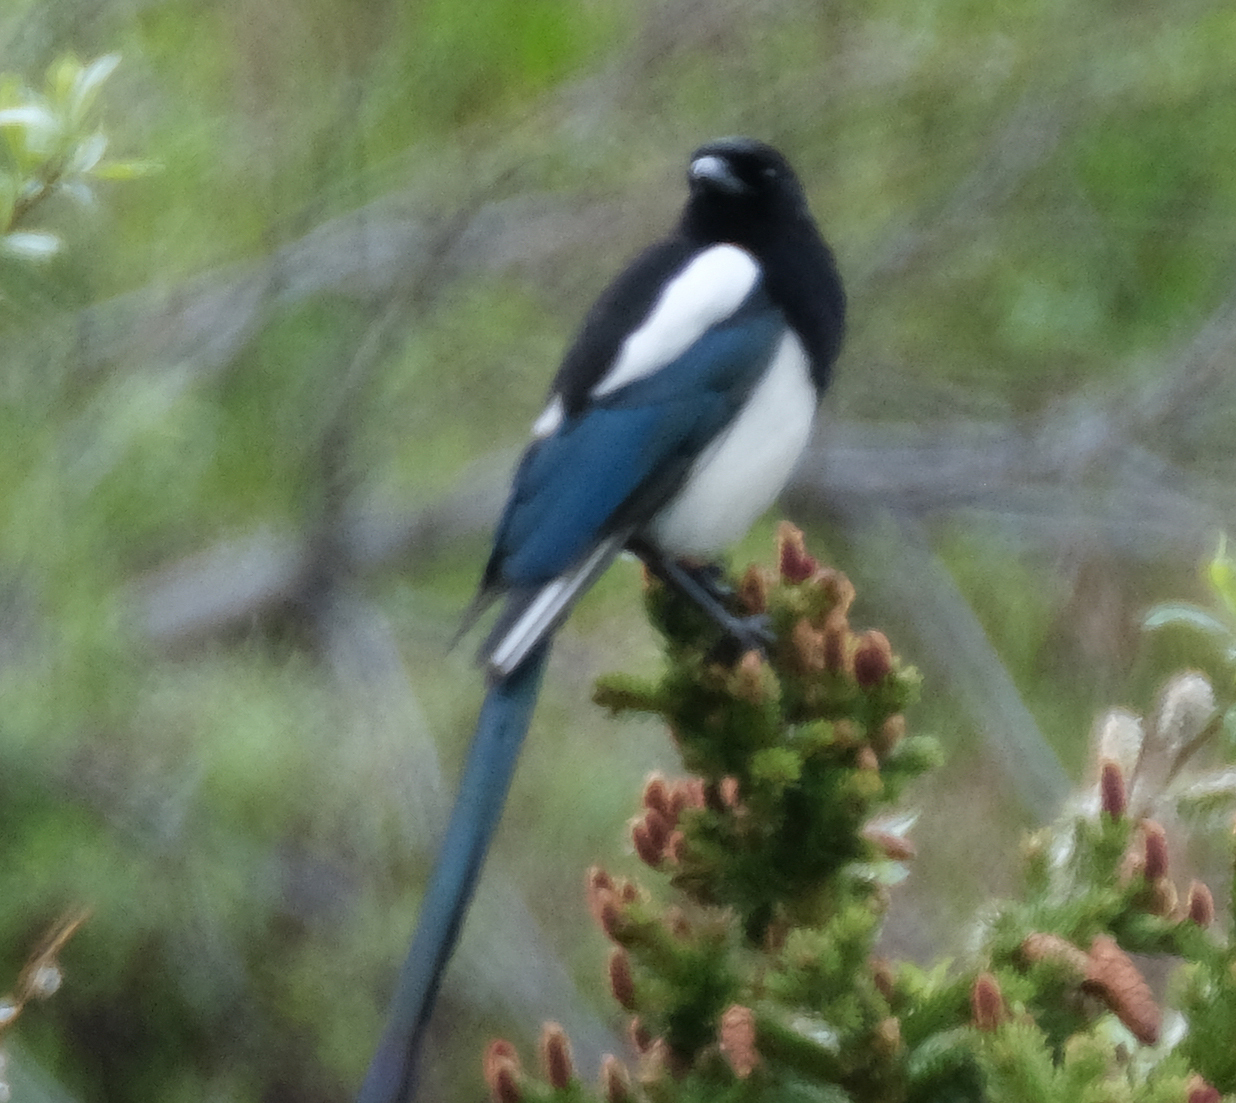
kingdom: Animalia
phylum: Chordata
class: Aves
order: Passeriformes
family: Corvidae
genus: Pica
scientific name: Pica hudsonia
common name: Black-billed magpie
